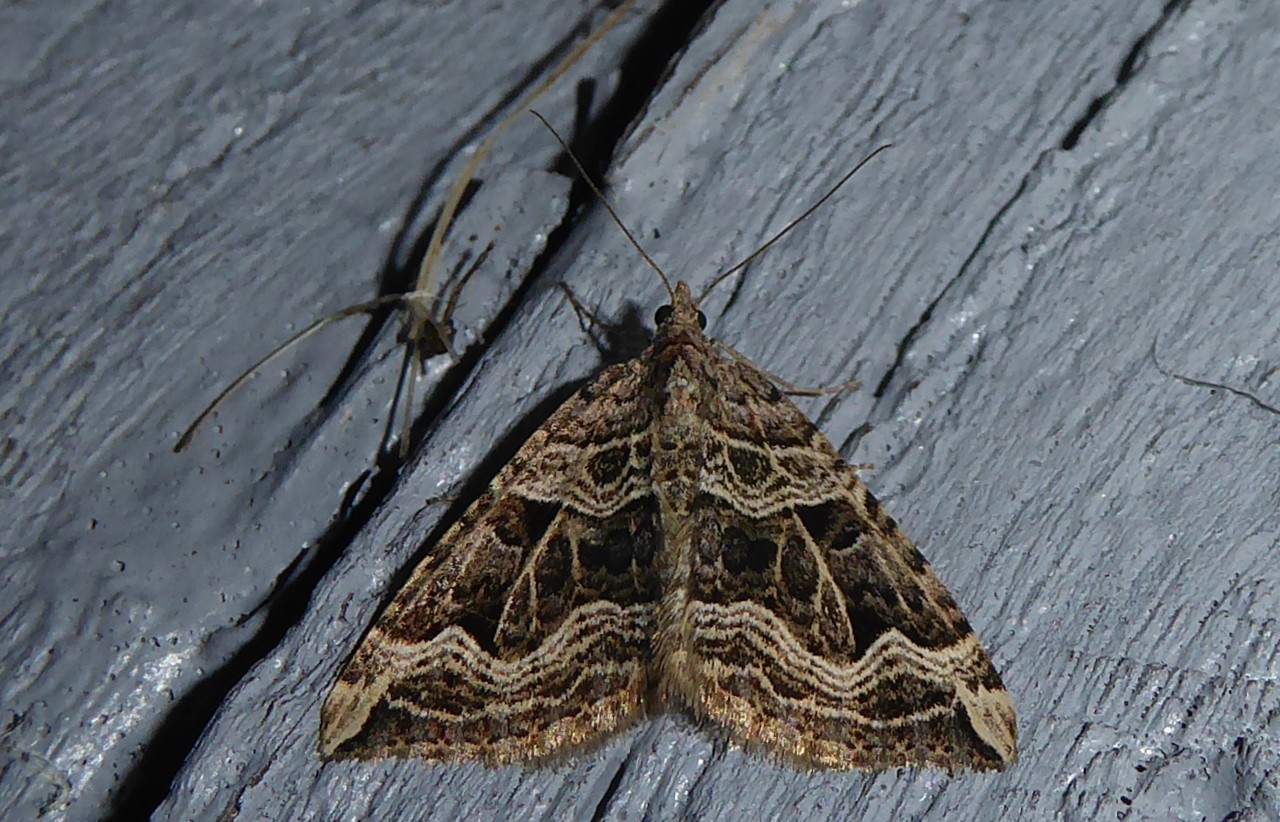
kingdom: Animalia
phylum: Arthropoda
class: Insecta
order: Lepidoptera
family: Geometridae
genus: Xanthorhoe
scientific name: Xanthorhoe semifissata
